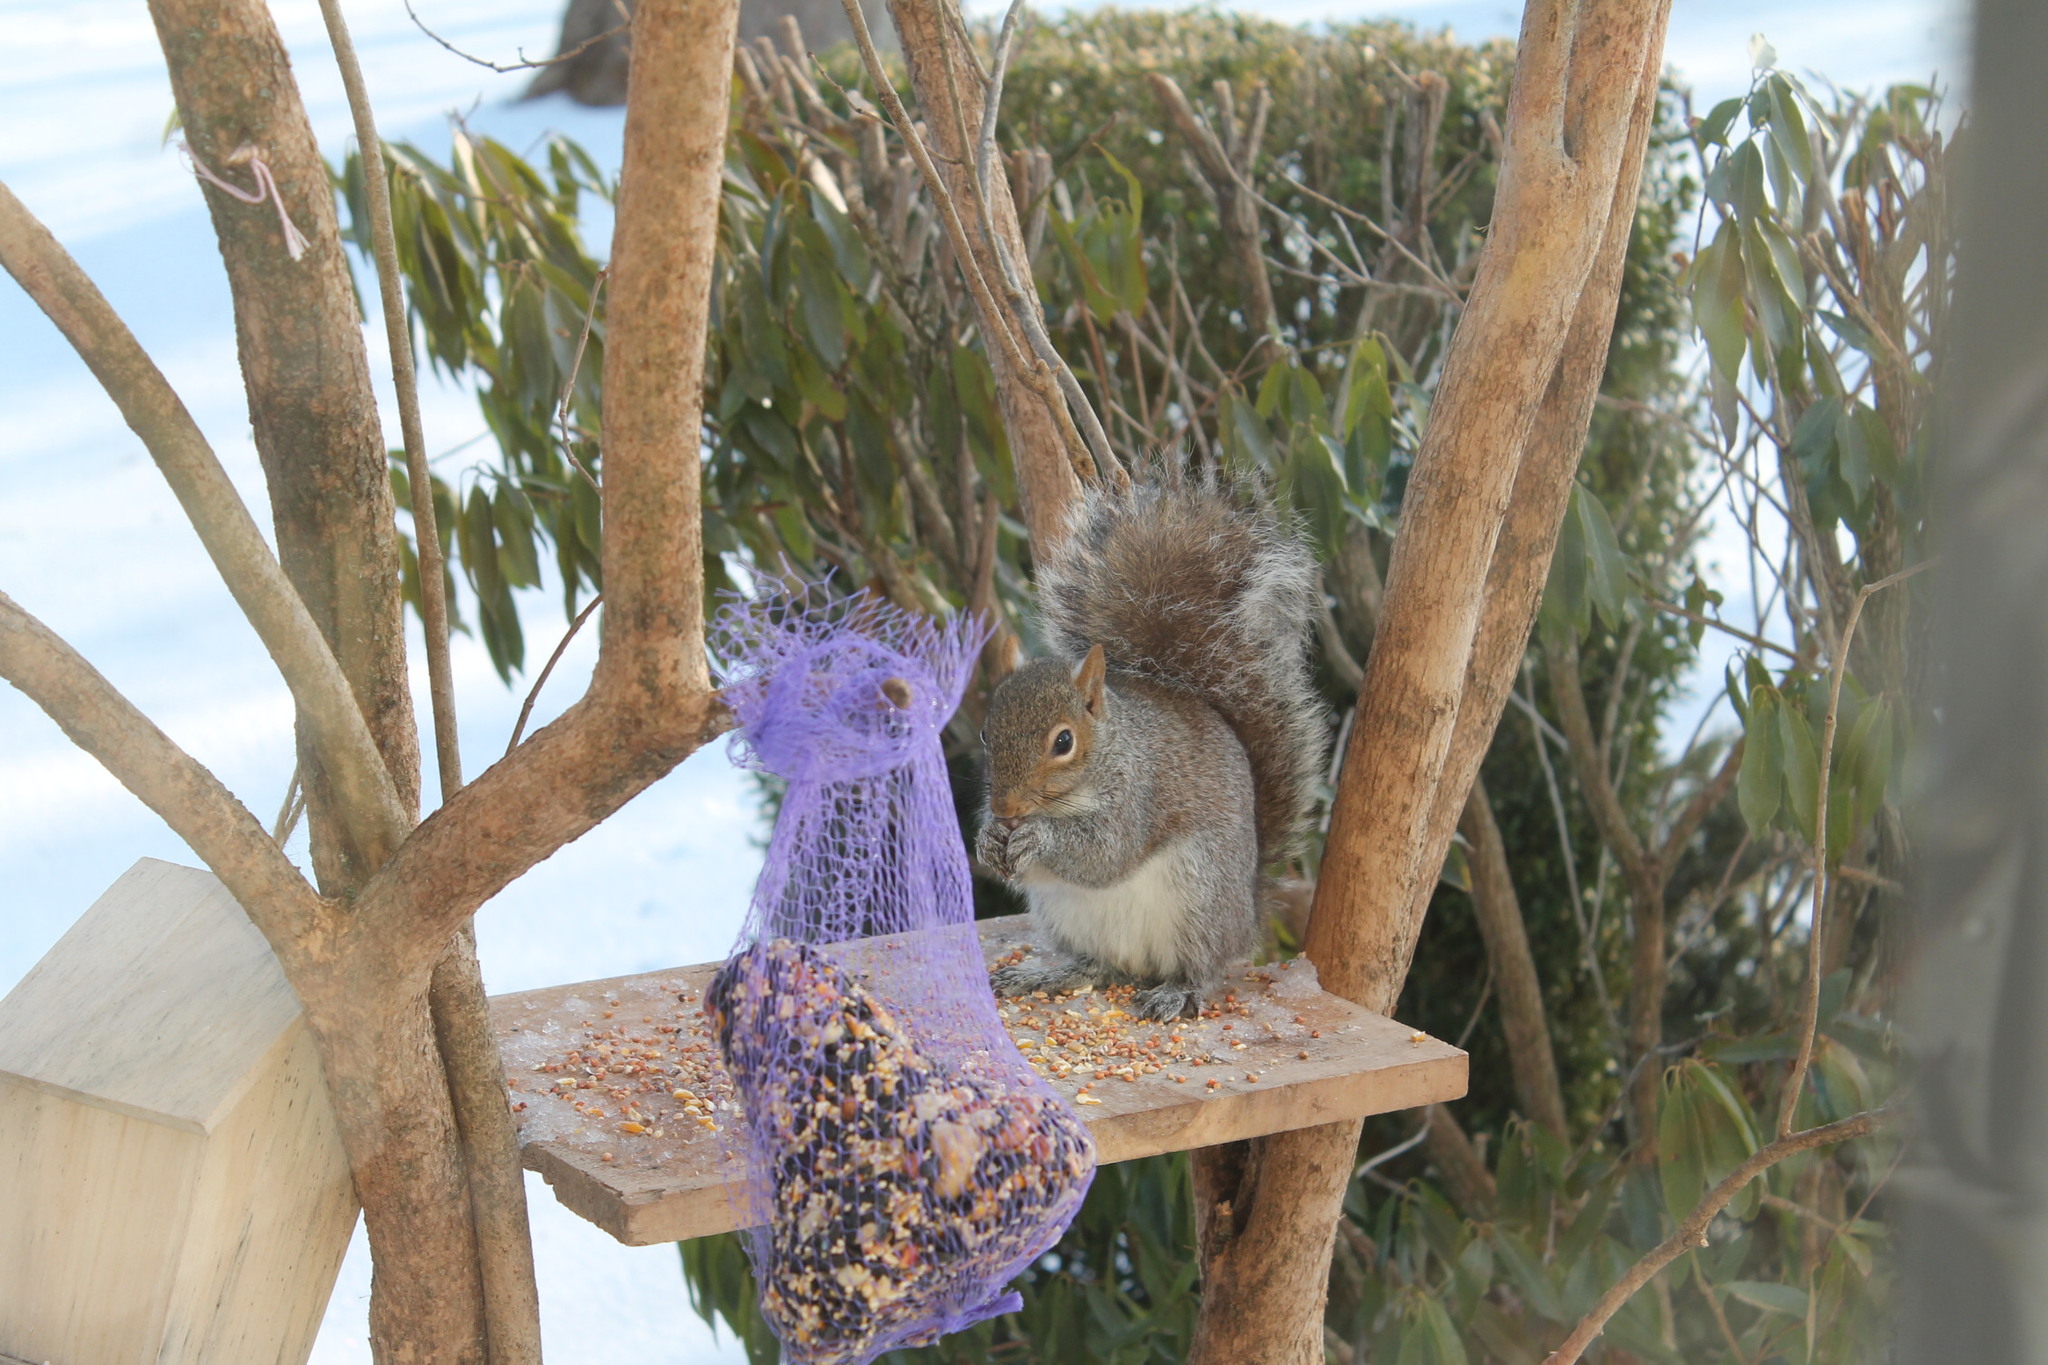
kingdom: Animalia
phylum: Chordata
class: Mammalia
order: Rodentia
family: Sciuridae
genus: Sciurus
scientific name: Sciurus carolinensis
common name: Eastern gray squirrel
